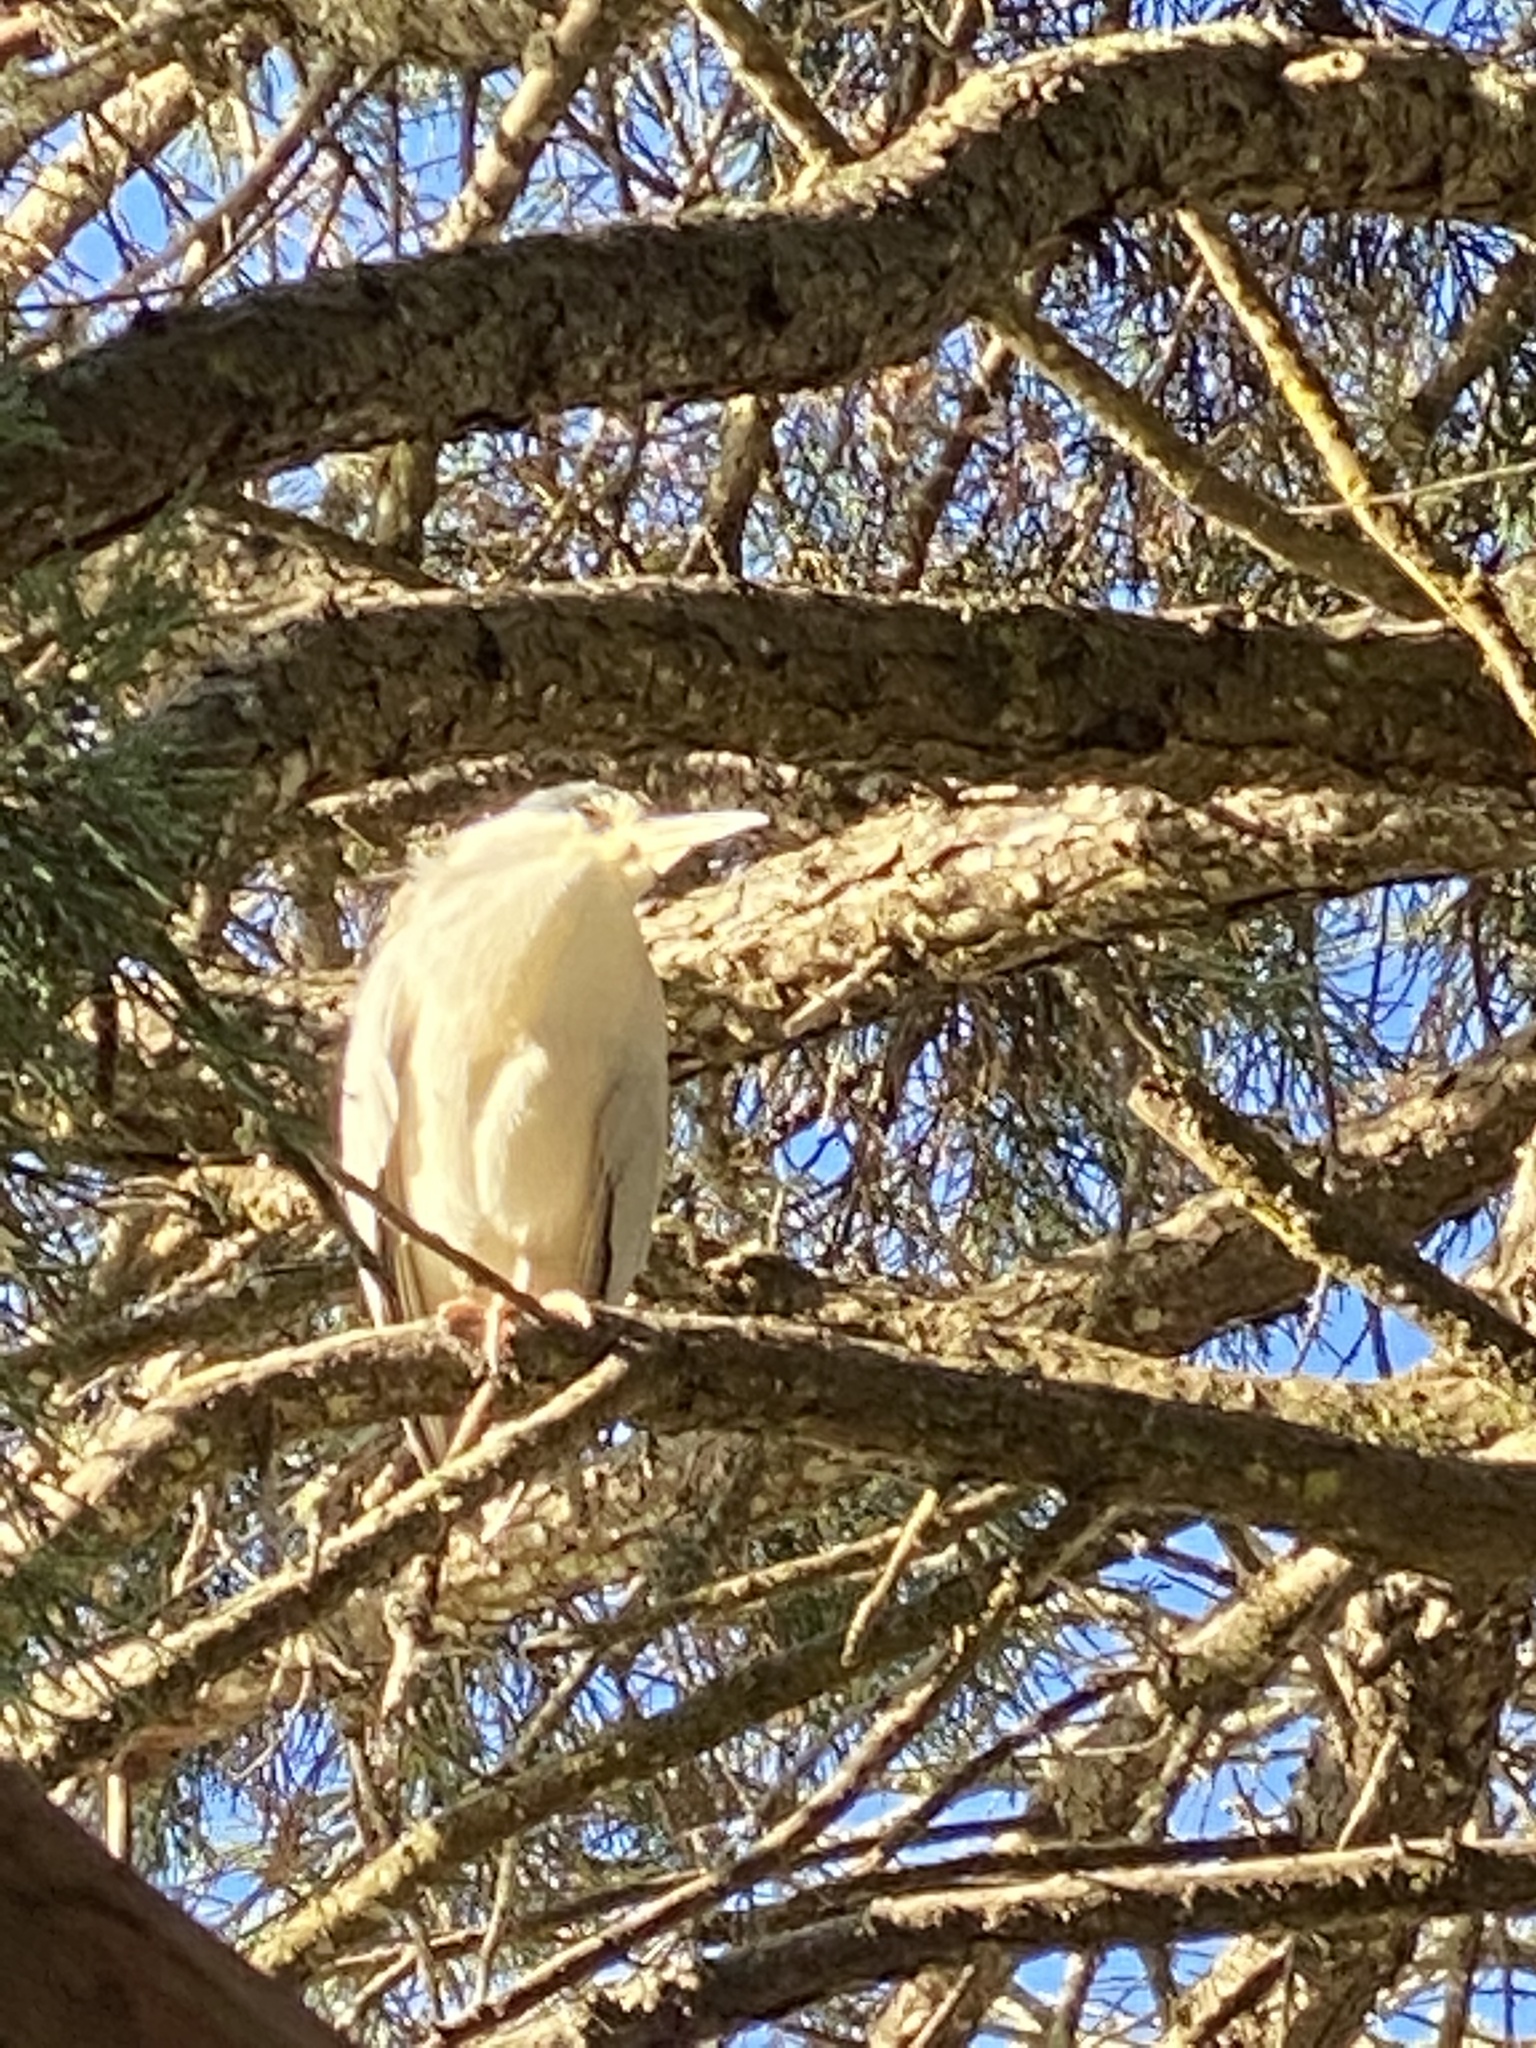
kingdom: Animalia
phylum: Chordata
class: Aves
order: Pelecaniformes
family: Ardeidae
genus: Nycticorax
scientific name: Nycticorax nycticorax
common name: Black-crowned night heron
